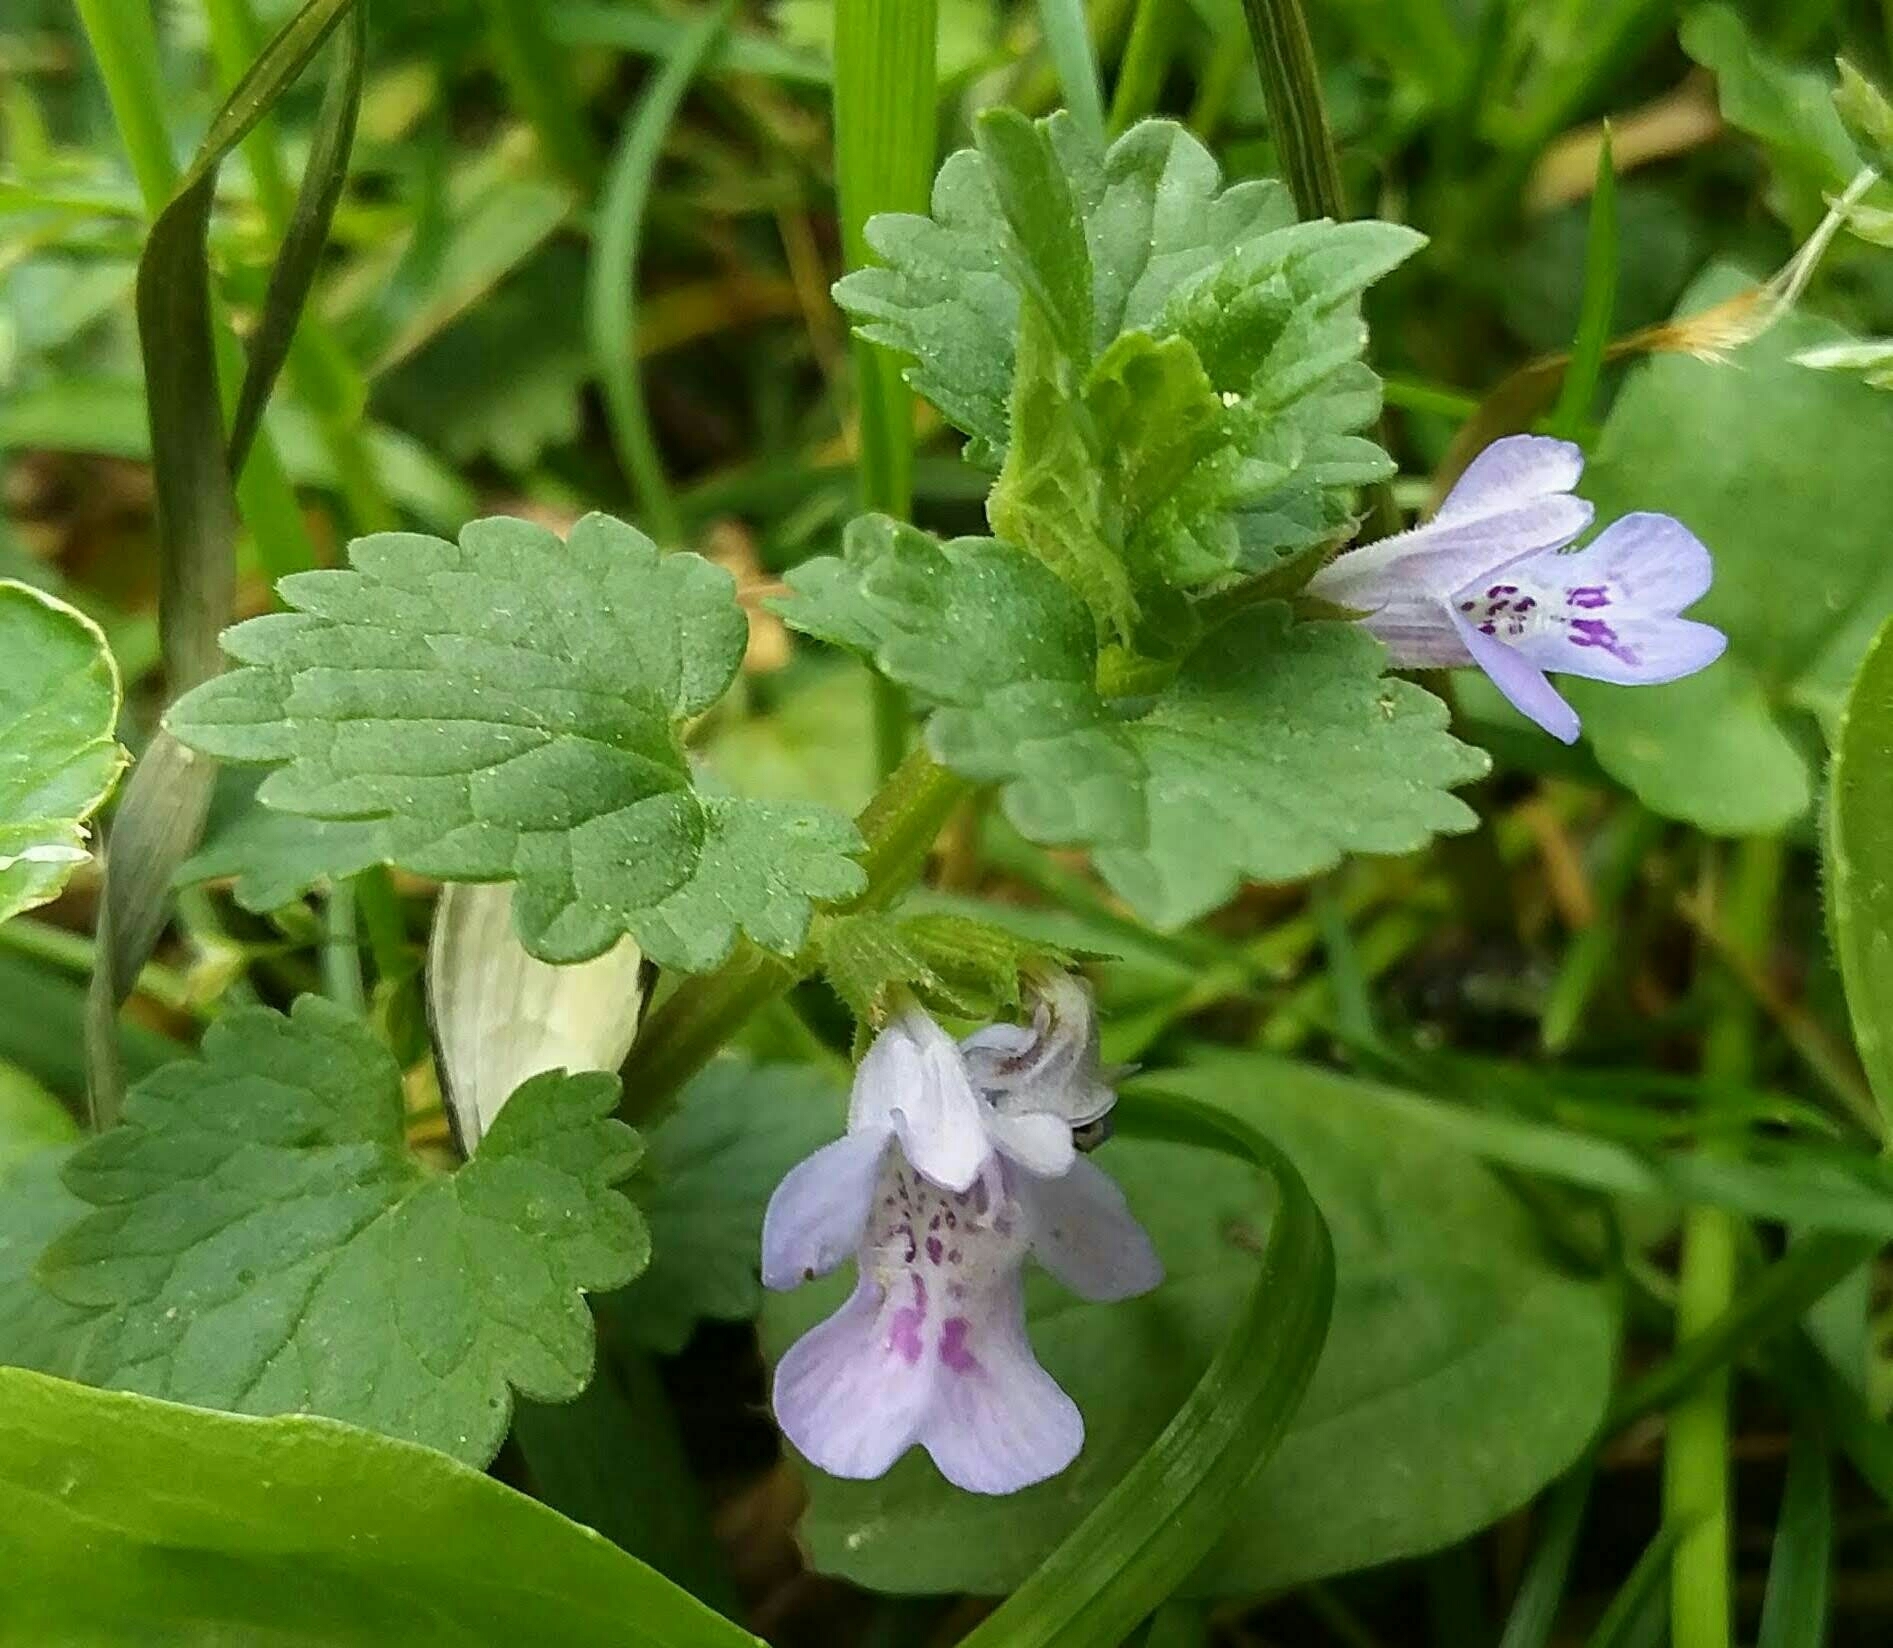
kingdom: Plantae
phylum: Tracheophyta
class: Magnoliopsida
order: Lamiales
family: Lamiaceae
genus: Glechoma
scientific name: Glechoma hederacea
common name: Ground ivy
